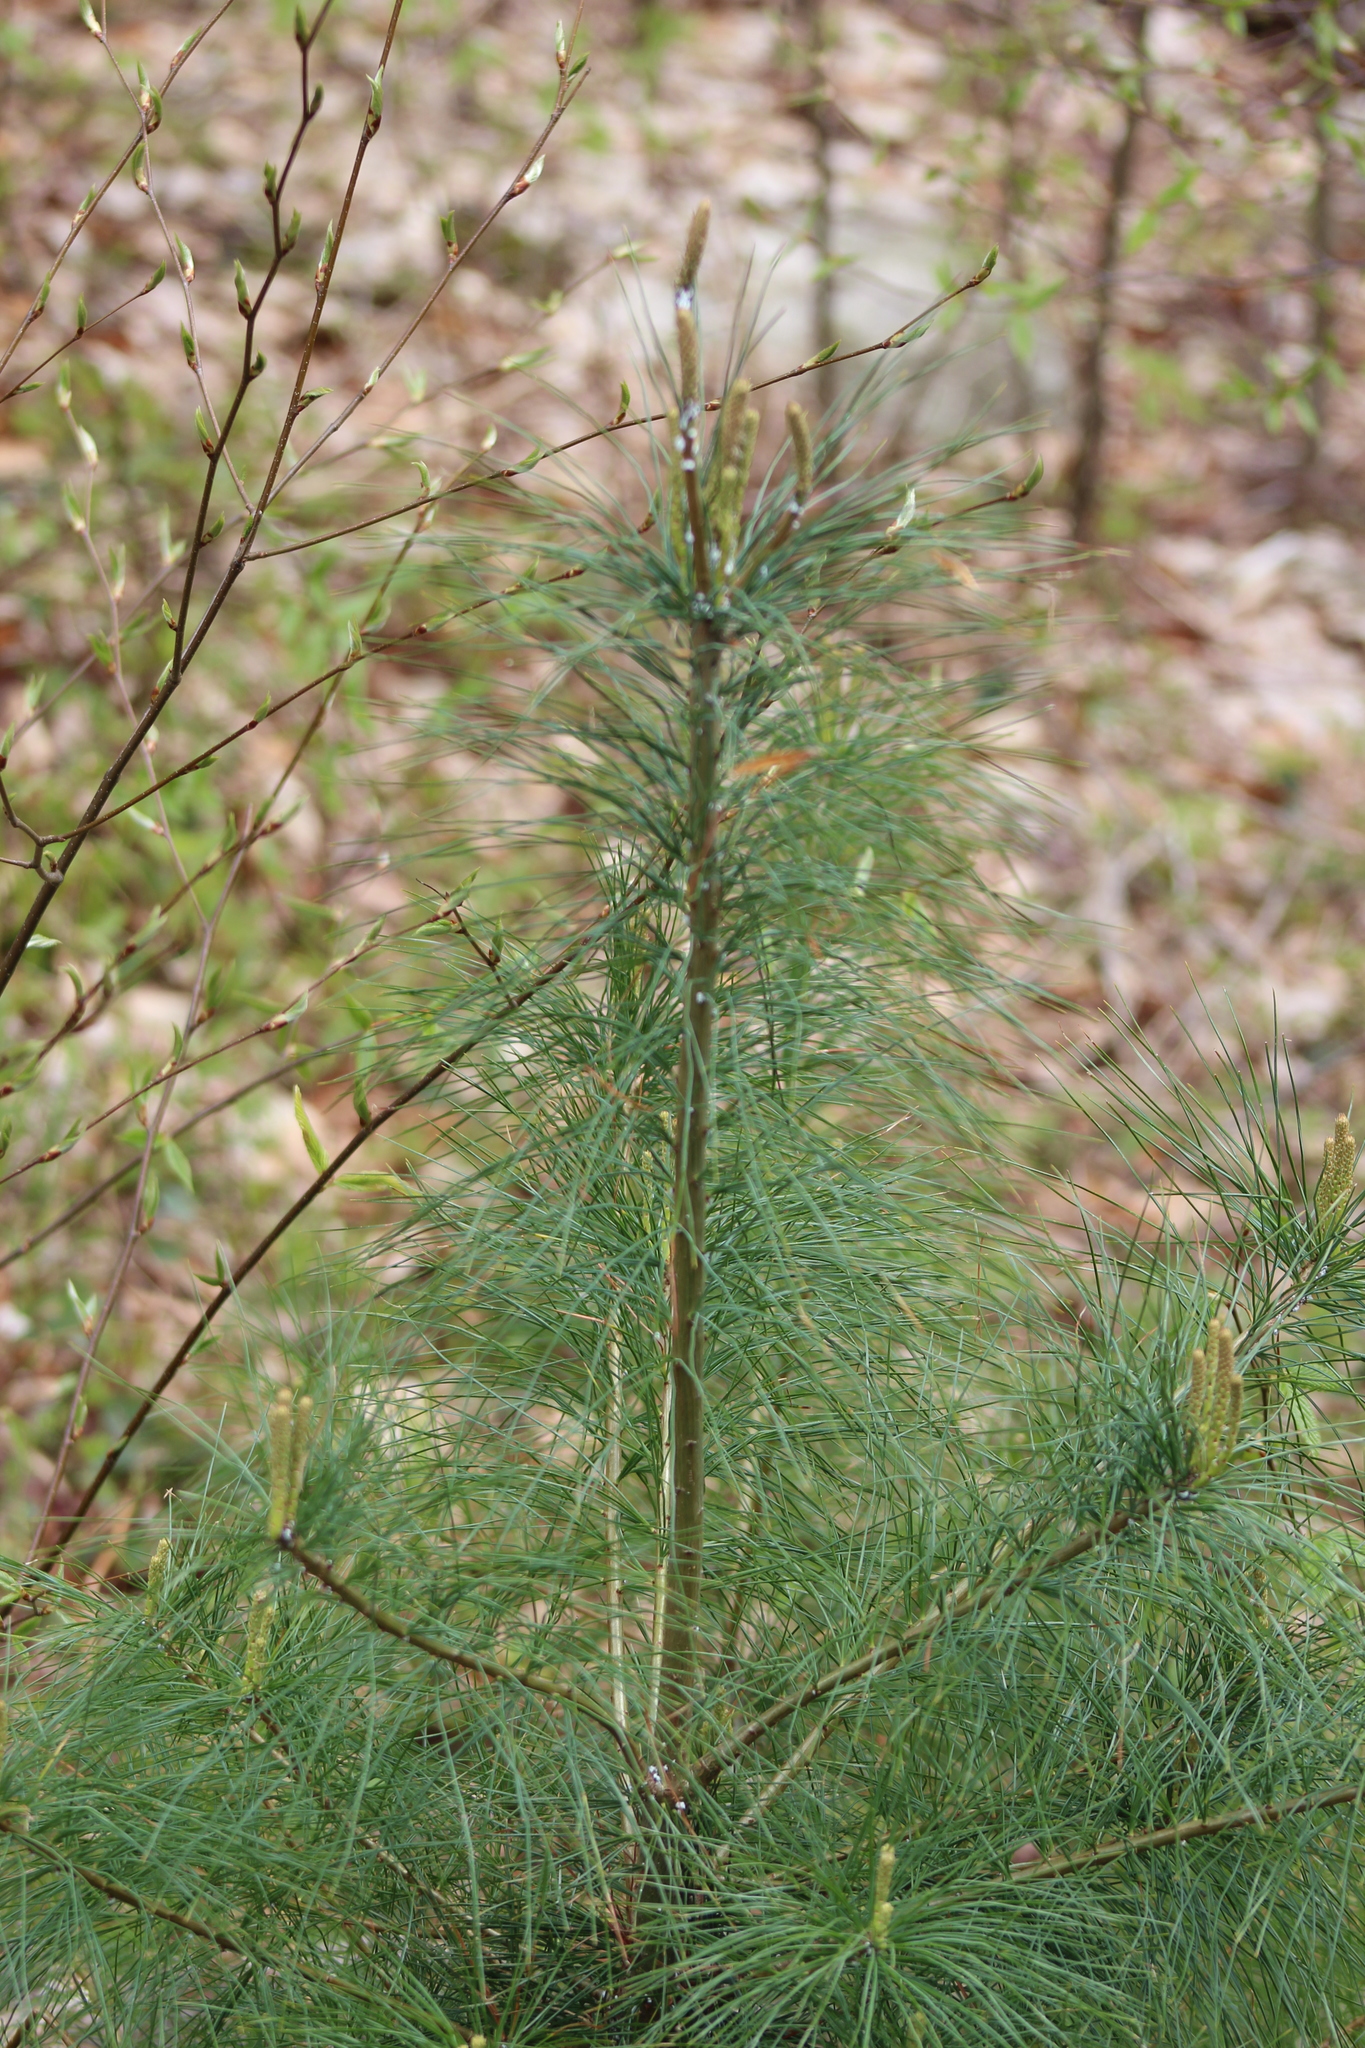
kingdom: Plantae
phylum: Tracheophyta
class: Pinopsida
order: Pinales
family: Pinaceae
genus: Pinus
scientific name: Pinus strobus
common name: Weymouth pine
